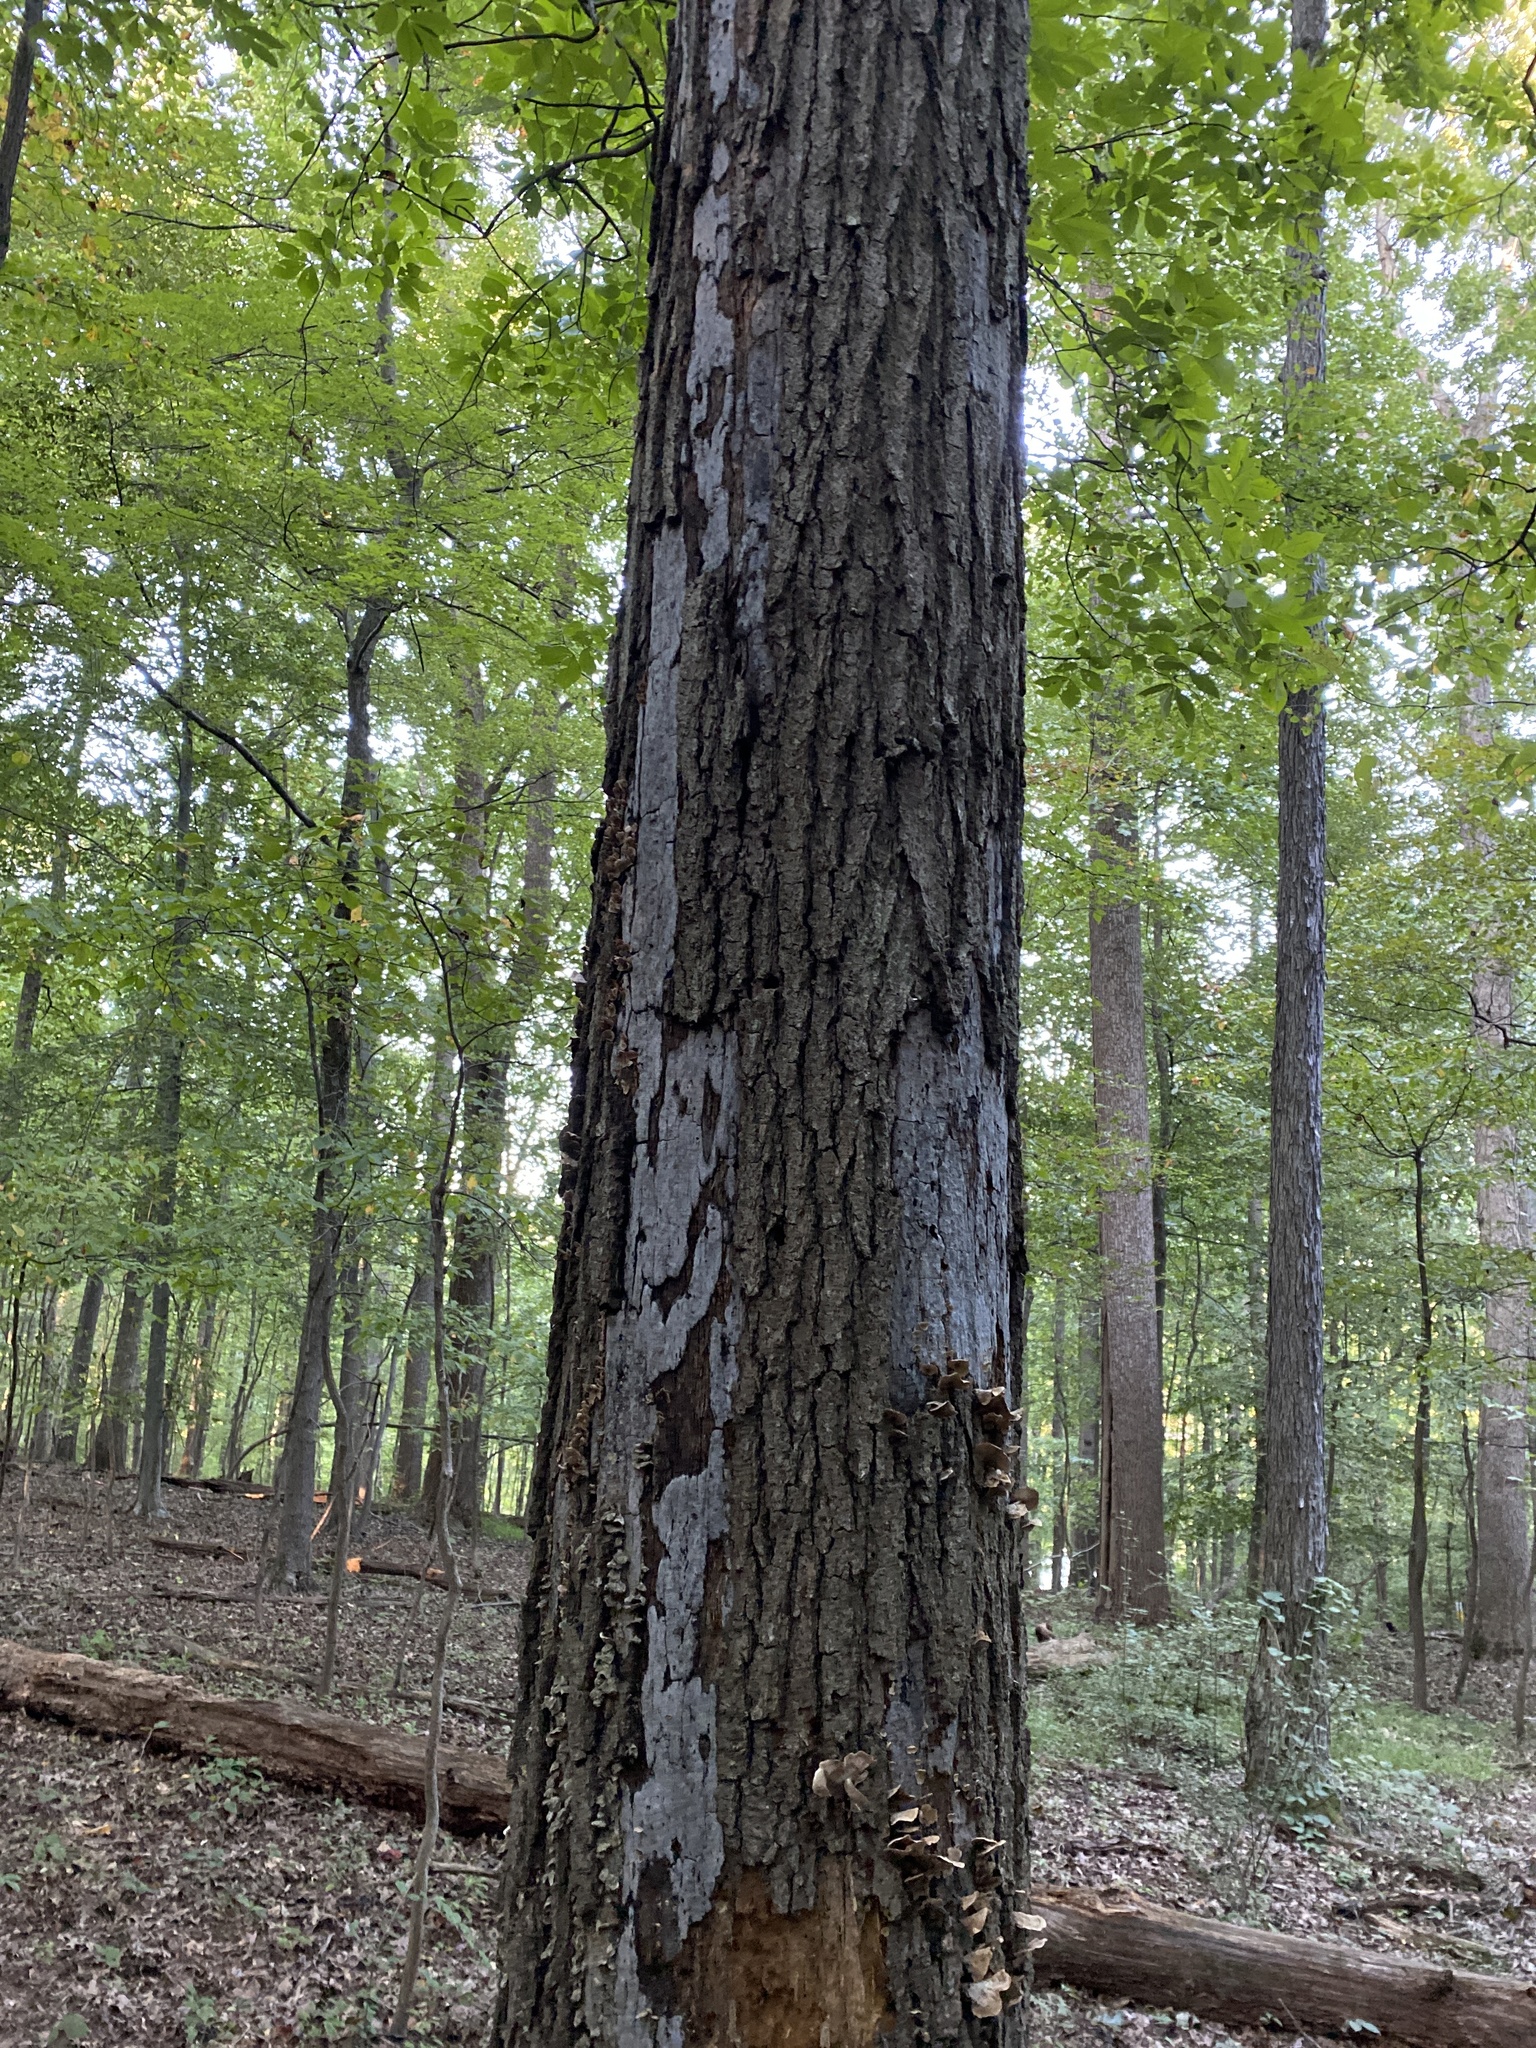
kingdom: Fungi
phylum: Ascomycota
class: Sordariomycetes
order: Xylariales
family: Graphostromataceae
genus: Biscogniauxia
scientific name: Biscogniauxia atropunctata
